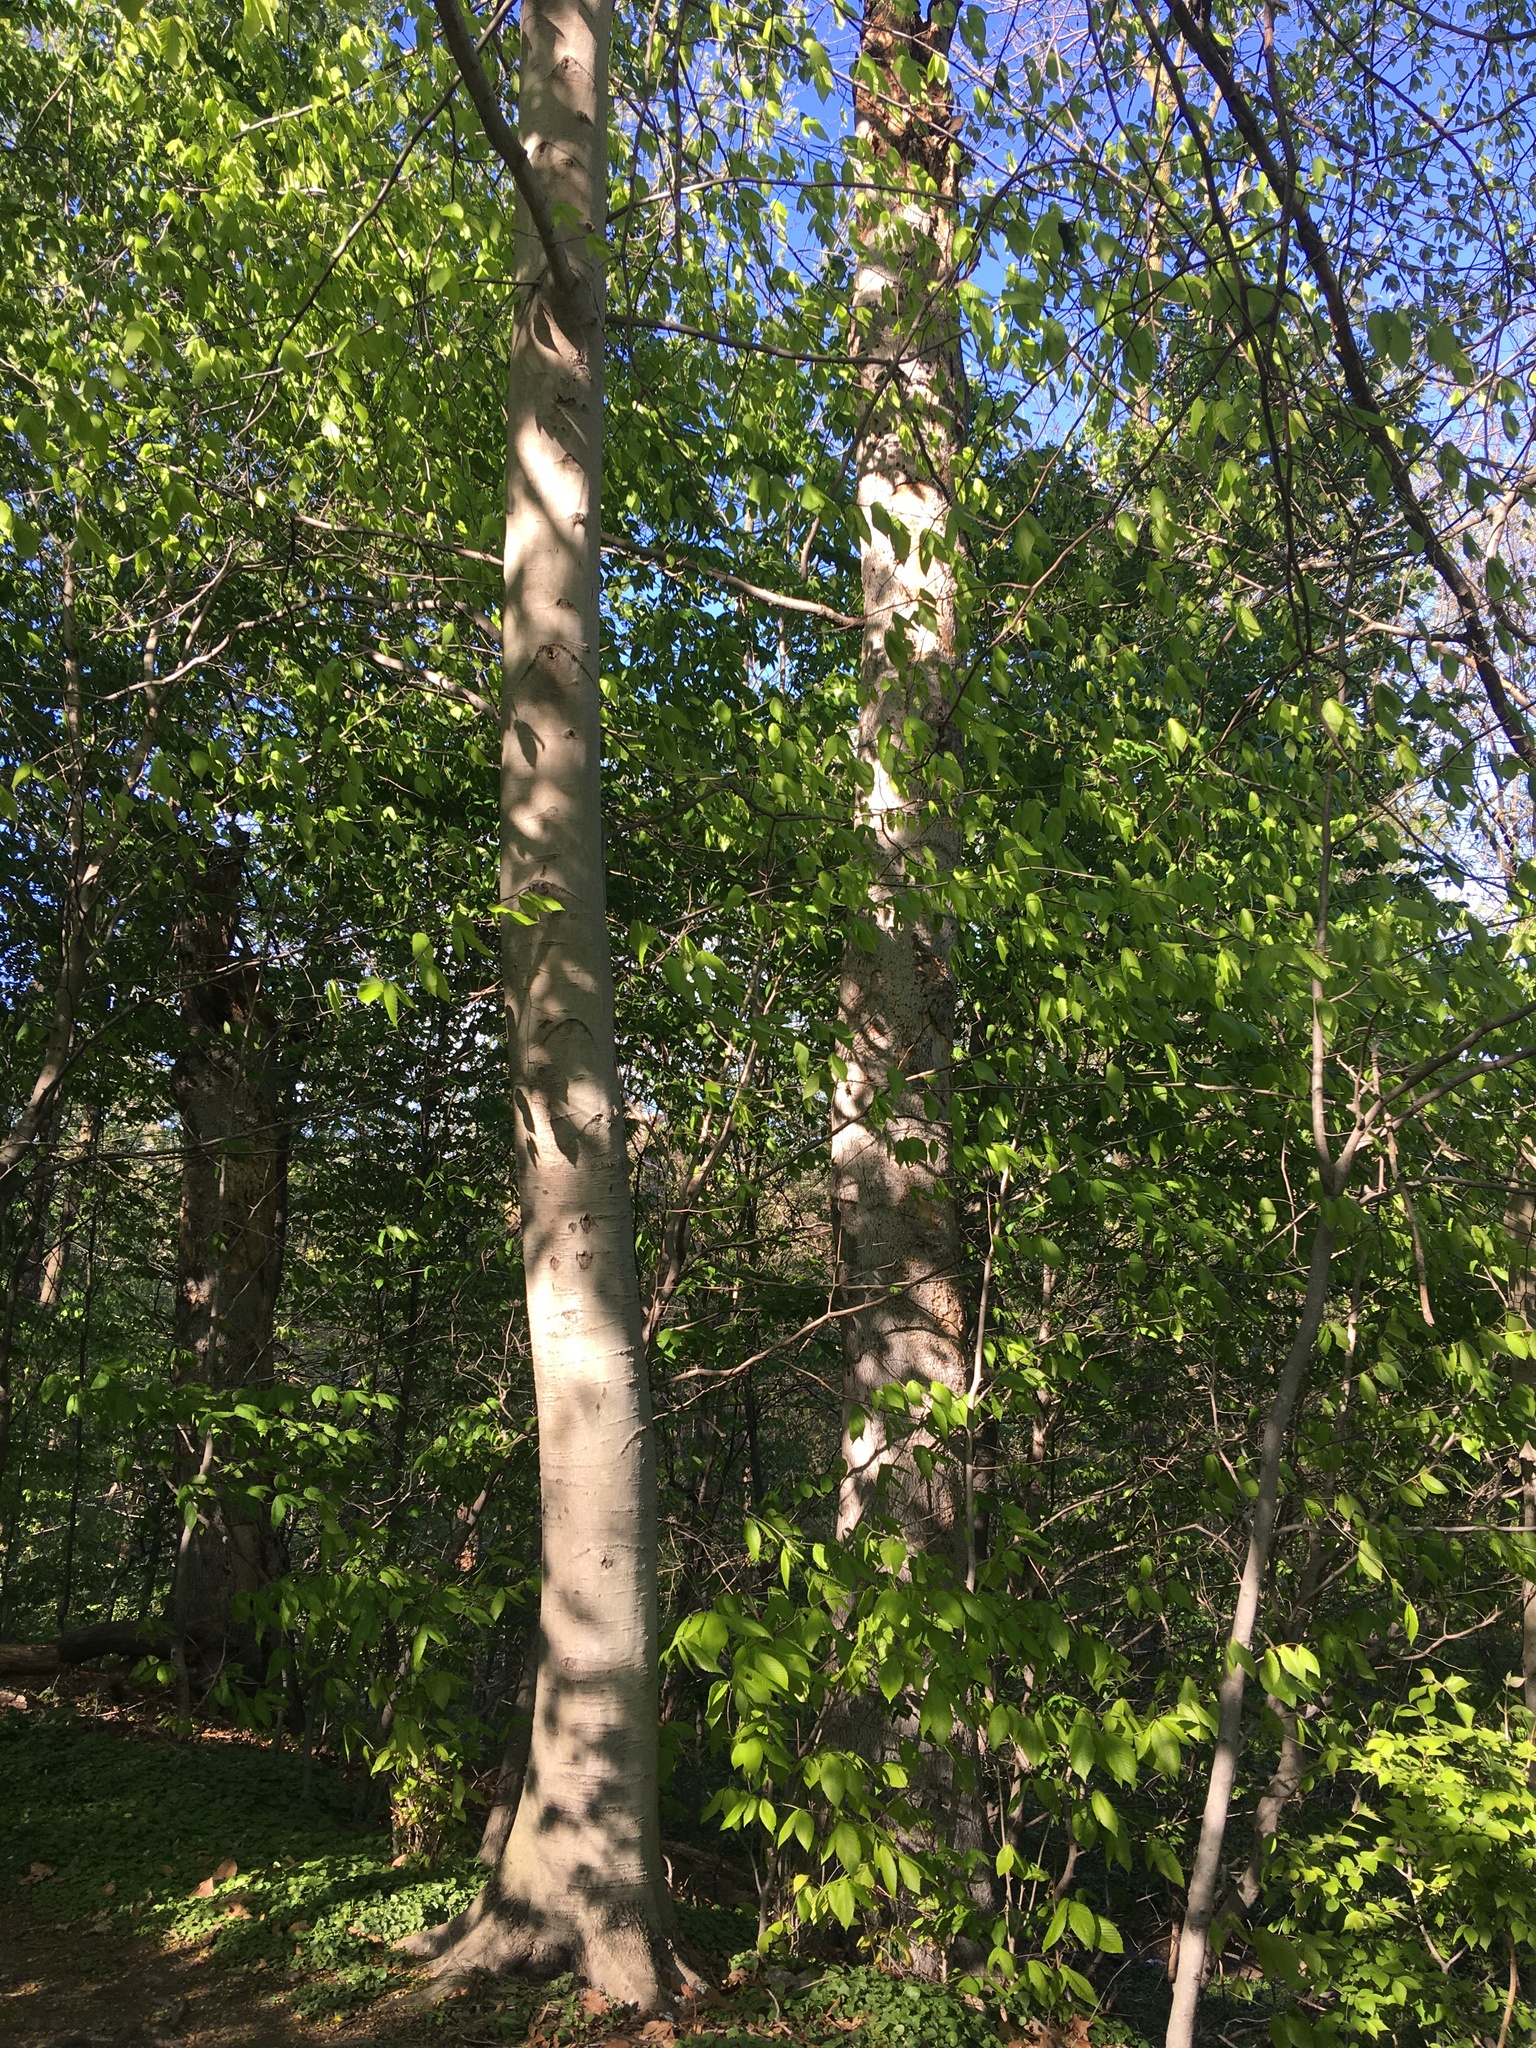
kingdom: Plantae
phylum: Tracheophyta
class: Magnoliopsida
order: Fagales
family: Fagaceae
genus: Fagus
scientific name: Fagus grandifolia
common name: American beech
